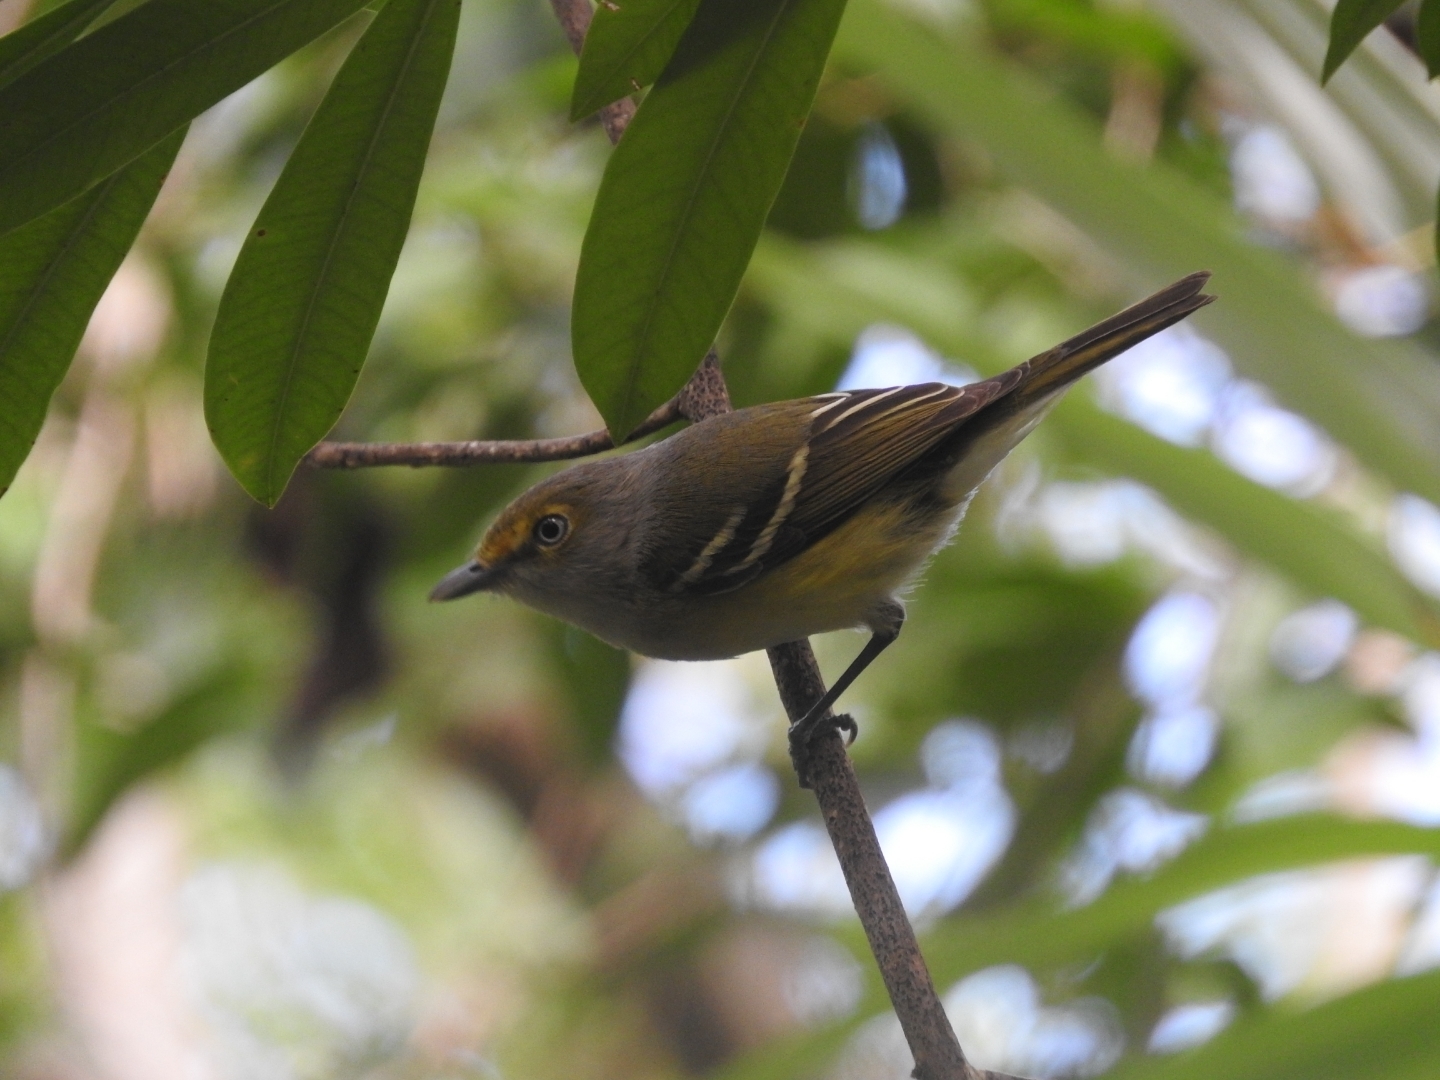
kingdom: Animalia
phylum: Chordata
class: Aves
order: Passeriformes
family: Vireonidae
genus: Vireo
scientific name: Vireo griseus
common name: White-eyed vireo
